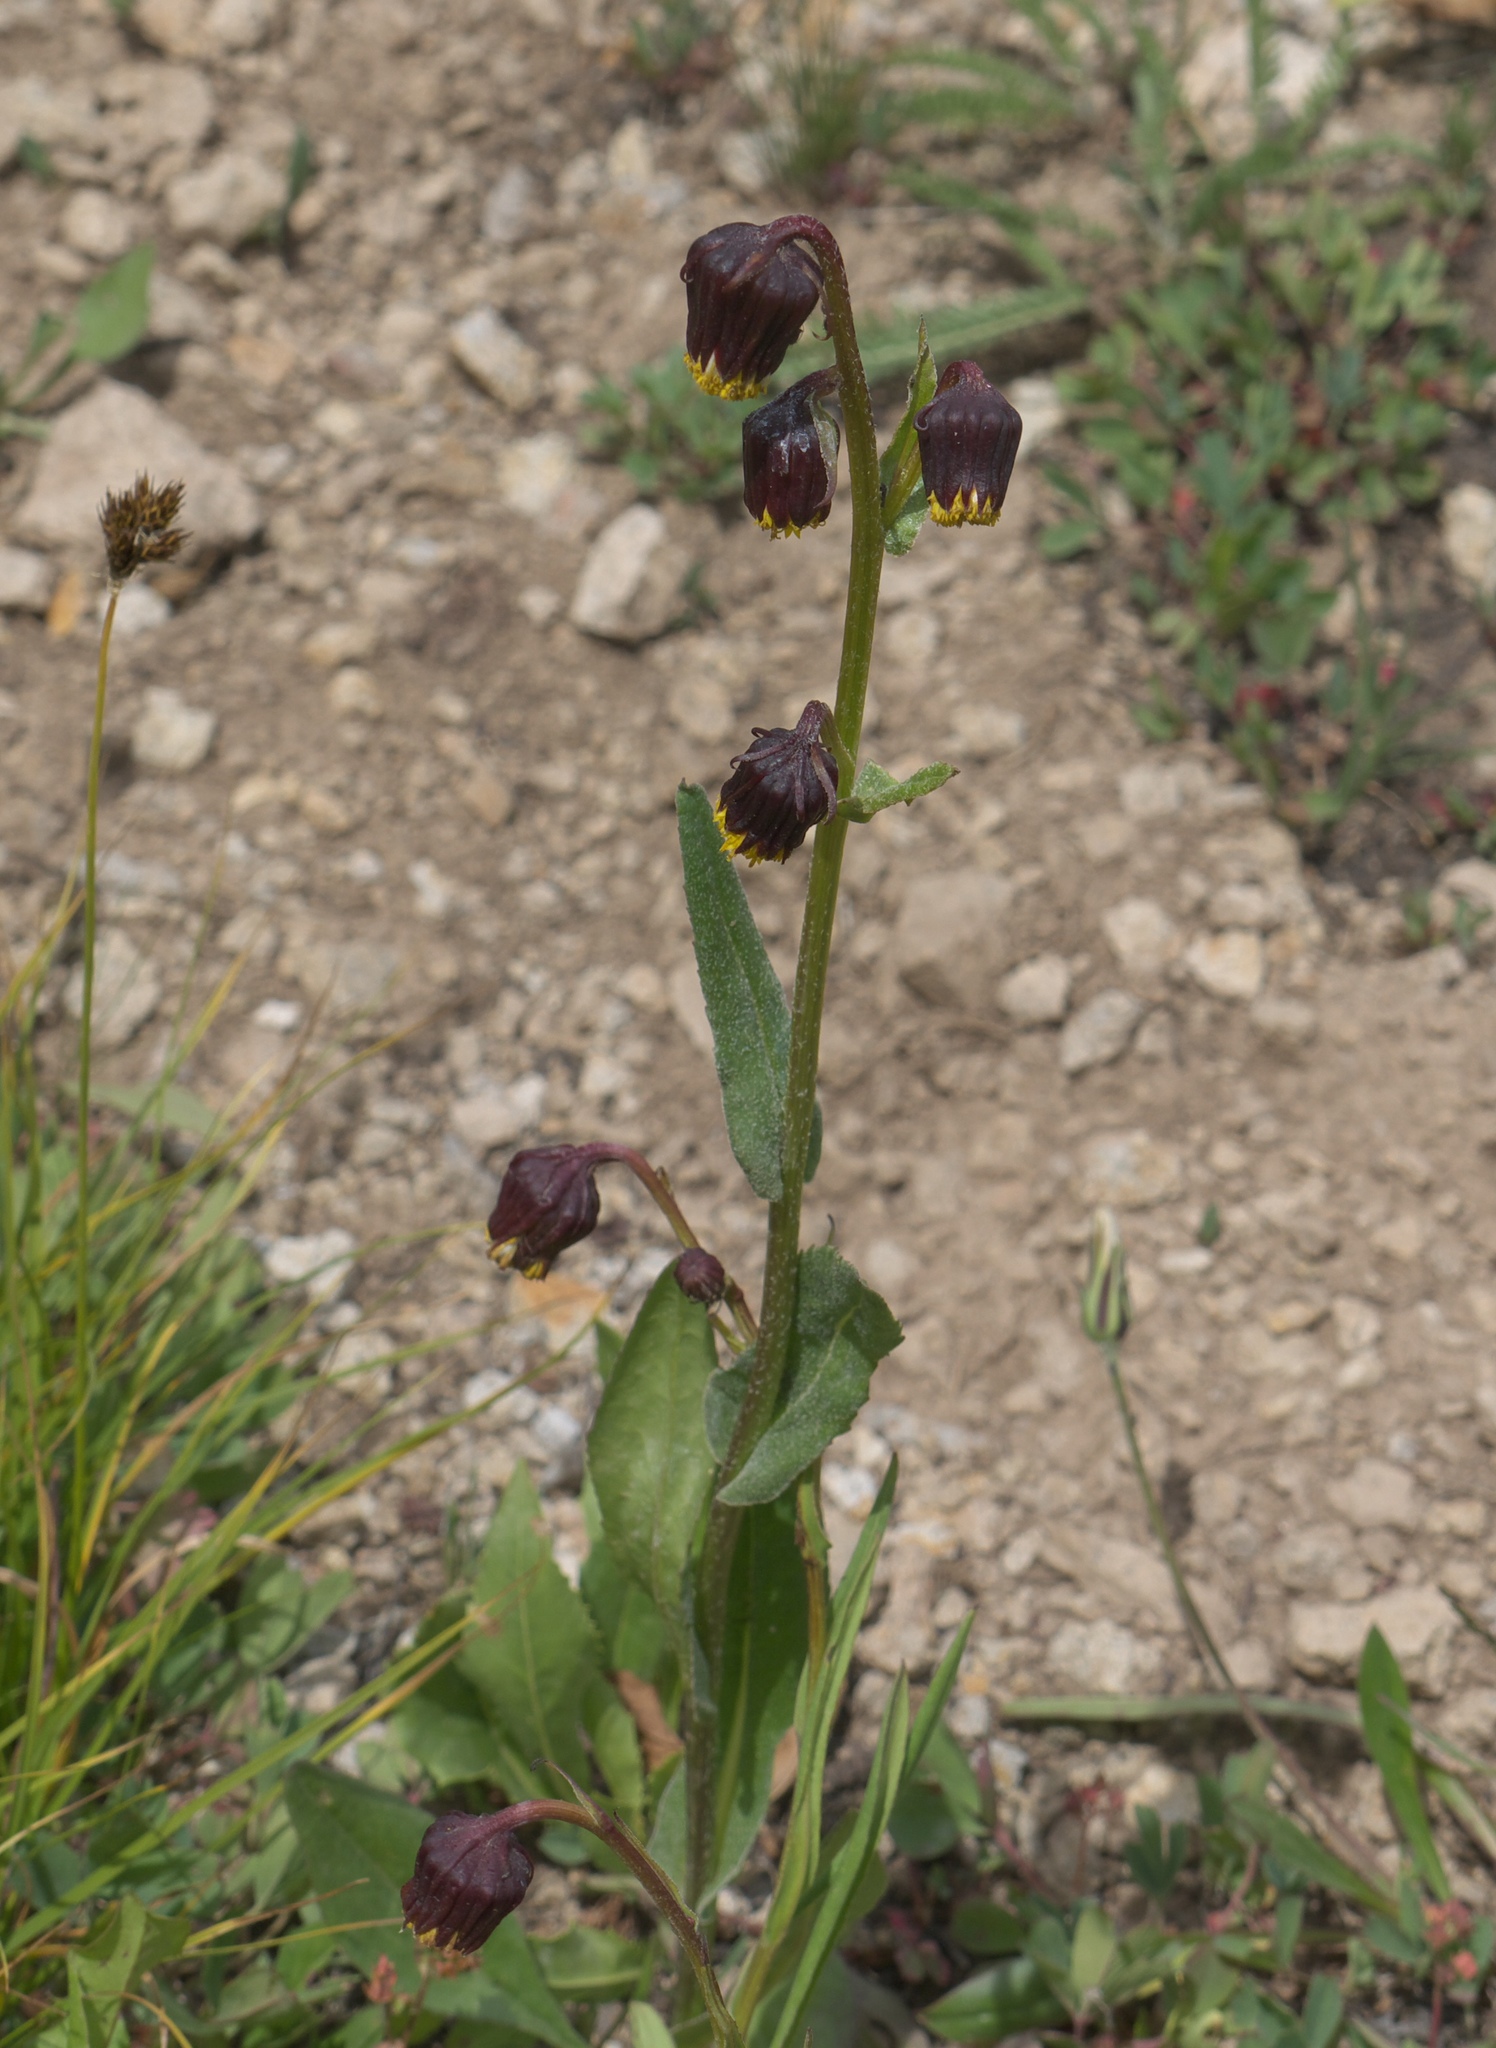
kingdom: Plantae
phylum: Tracheophyta
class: Magnoliopsida
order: Asterales
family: Asteraceae
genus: Senecio
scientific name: Senecio bigelovii
